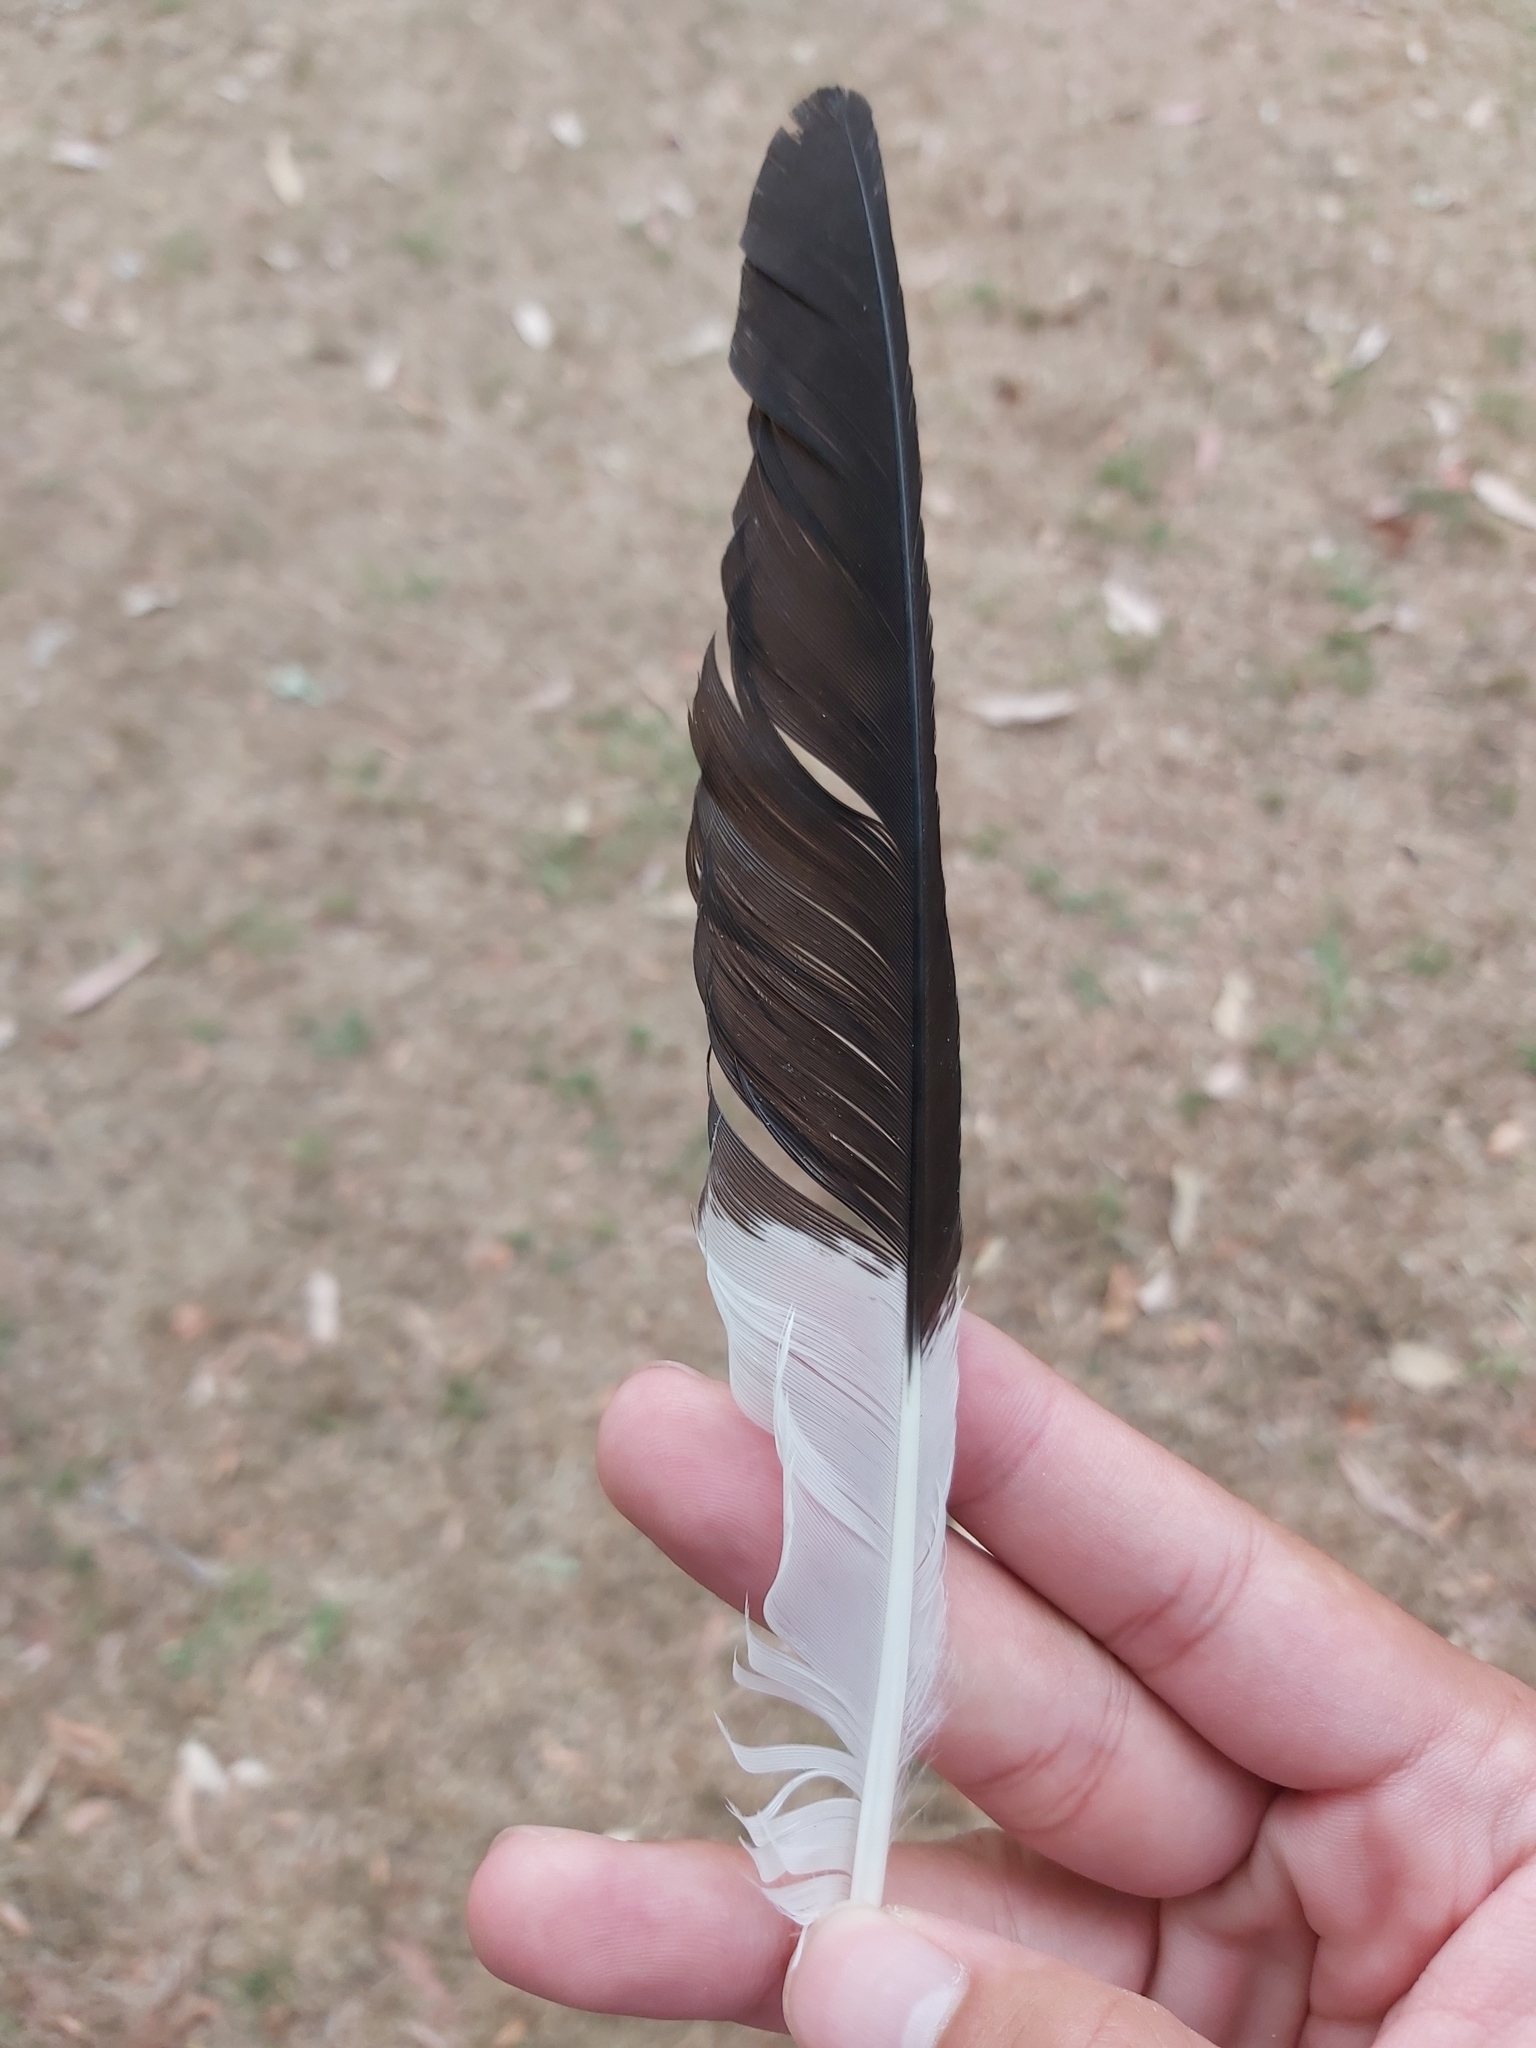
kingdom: Animalia
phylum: Chordata
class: Aves
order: Passeriformes
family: Cracticidae
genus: Strepera
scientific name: Strepera graculina
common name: Pied currawong
